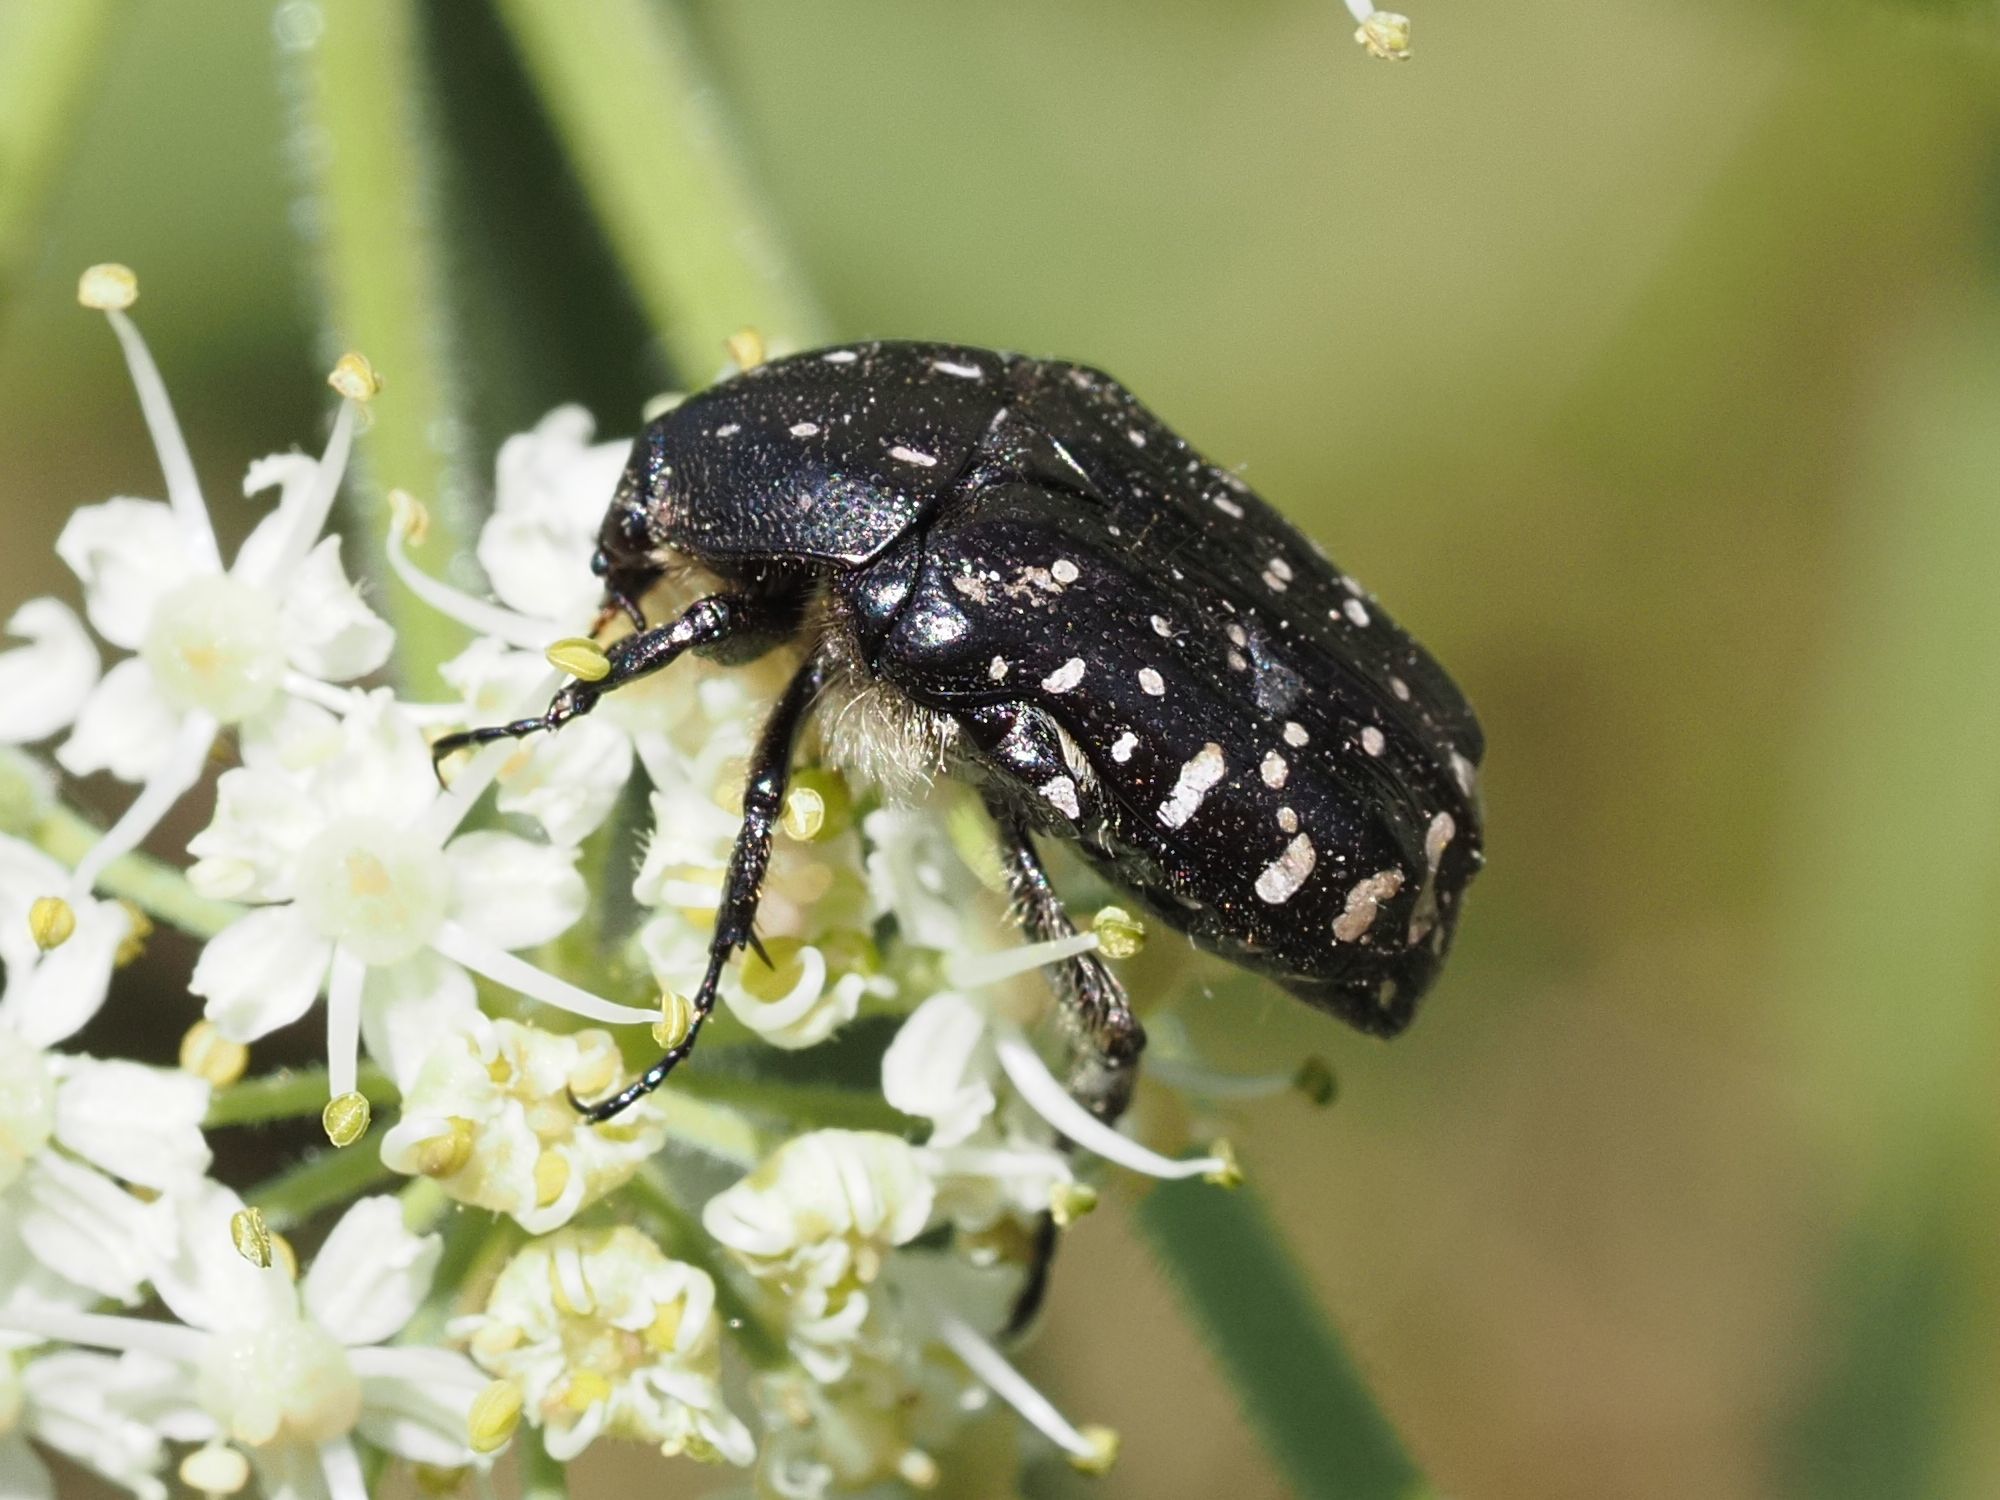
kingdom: Animalia
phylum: Arthropoda
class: Insecta
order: Coleoptera
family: Scarabaeidae
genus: Oxythyrea
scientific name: Oxythyrea funesta
